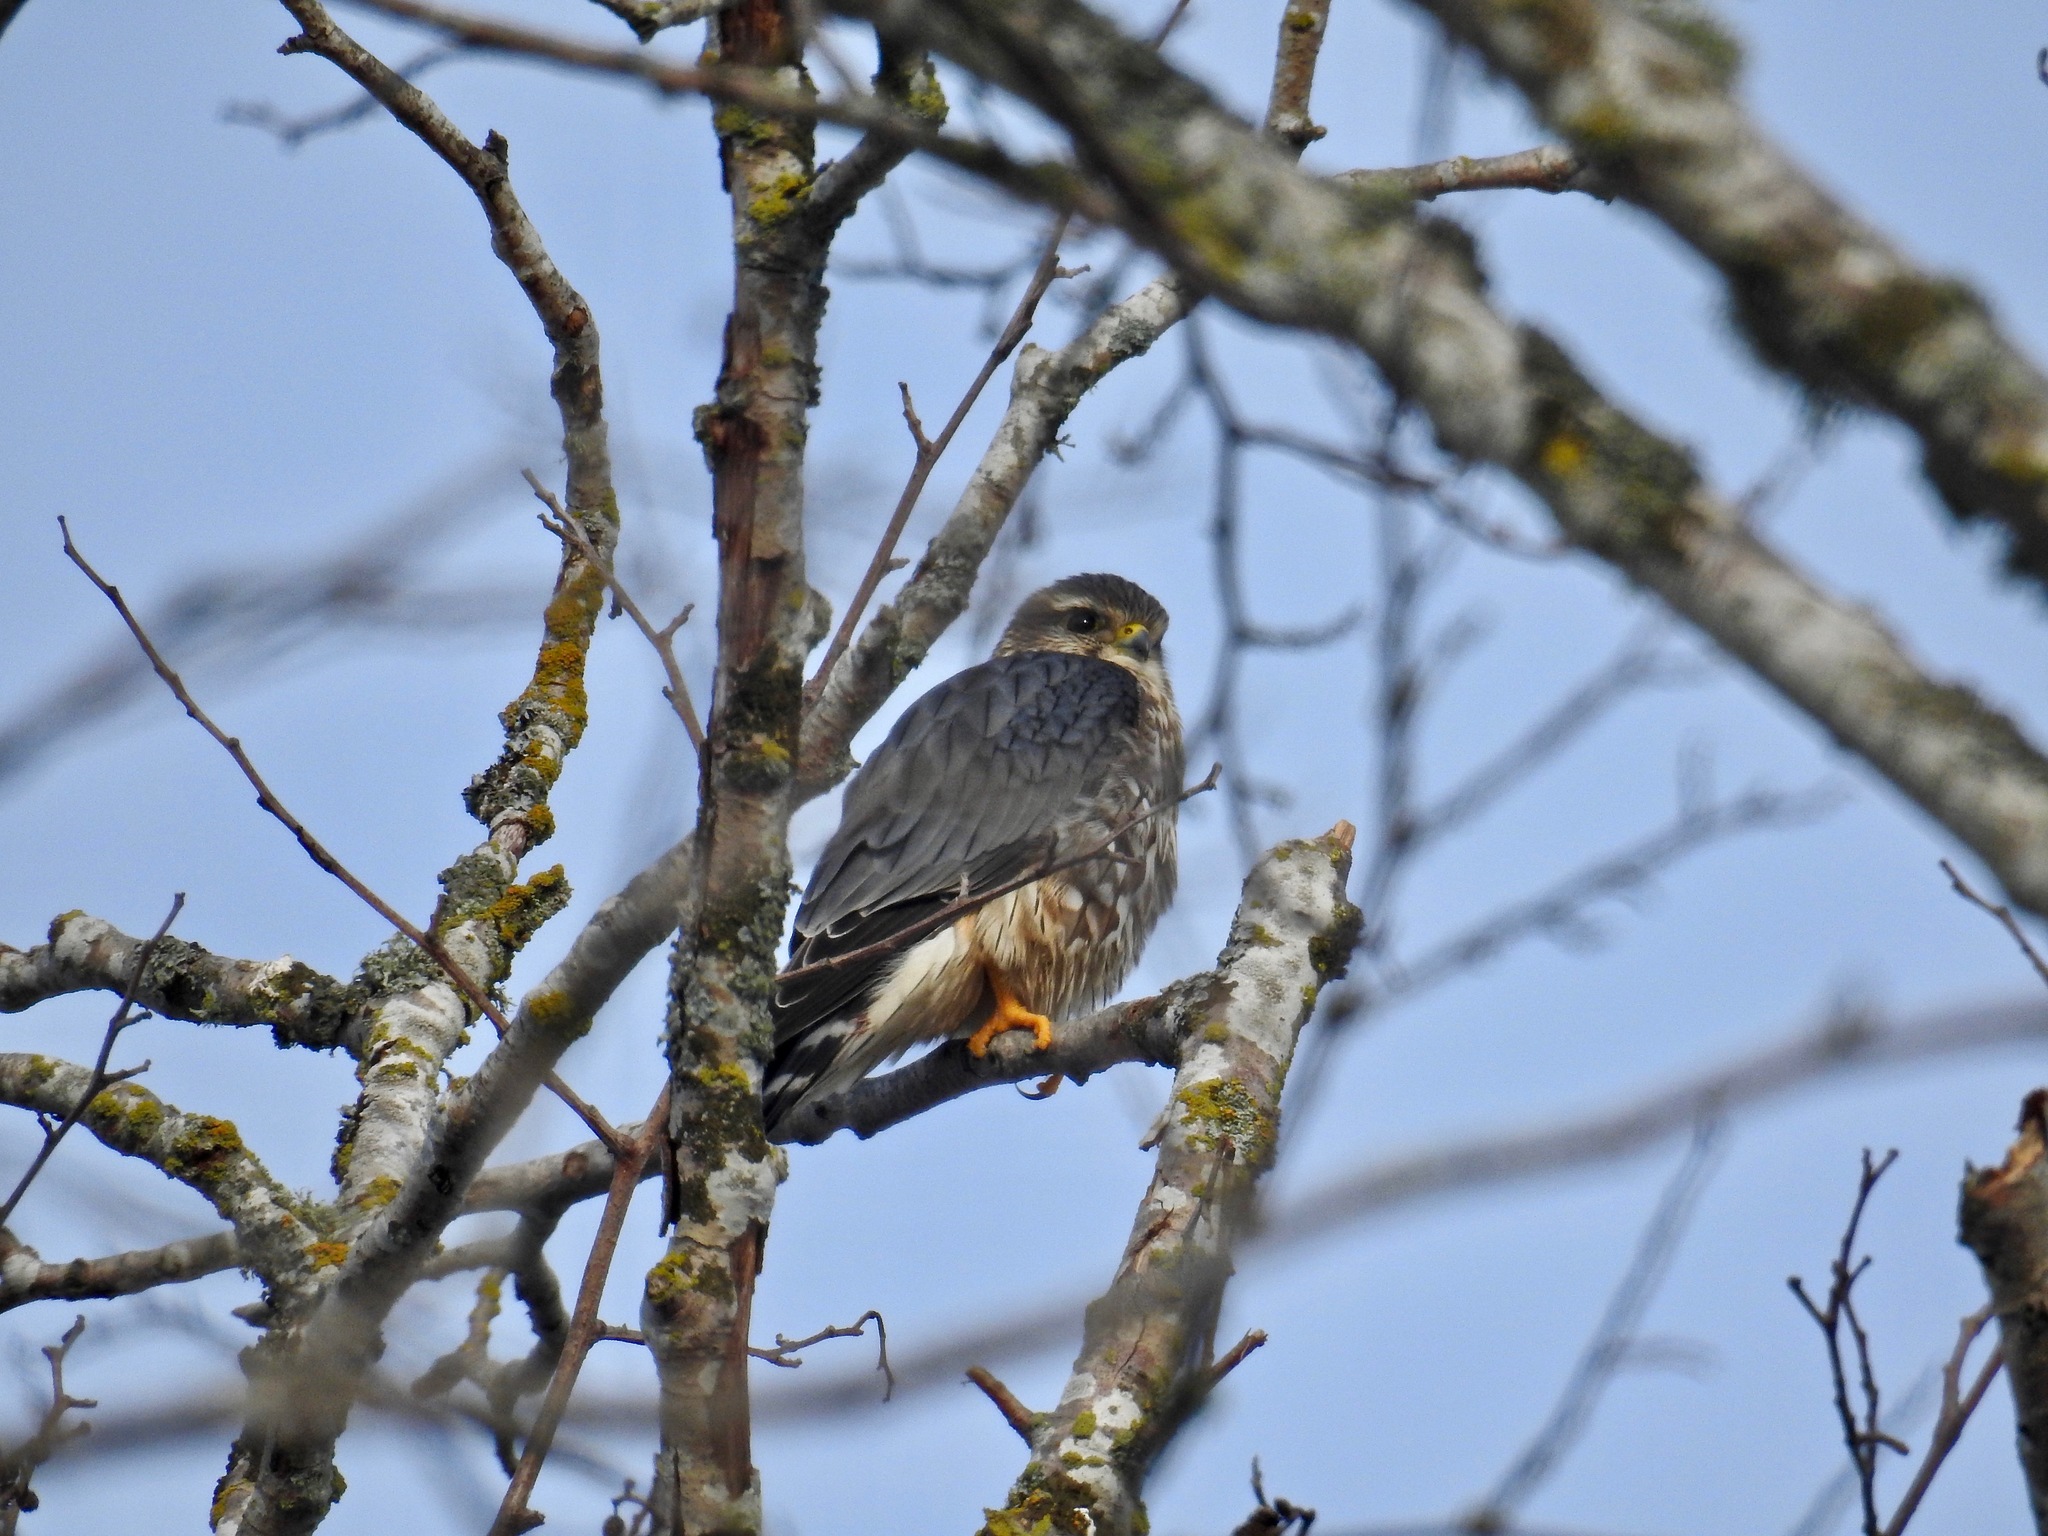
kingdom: Animalia
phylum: Chordata
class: Aves
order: Falconiformes
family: Falconidae
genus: Falco
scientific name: Falco columbarius
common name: Merlin
